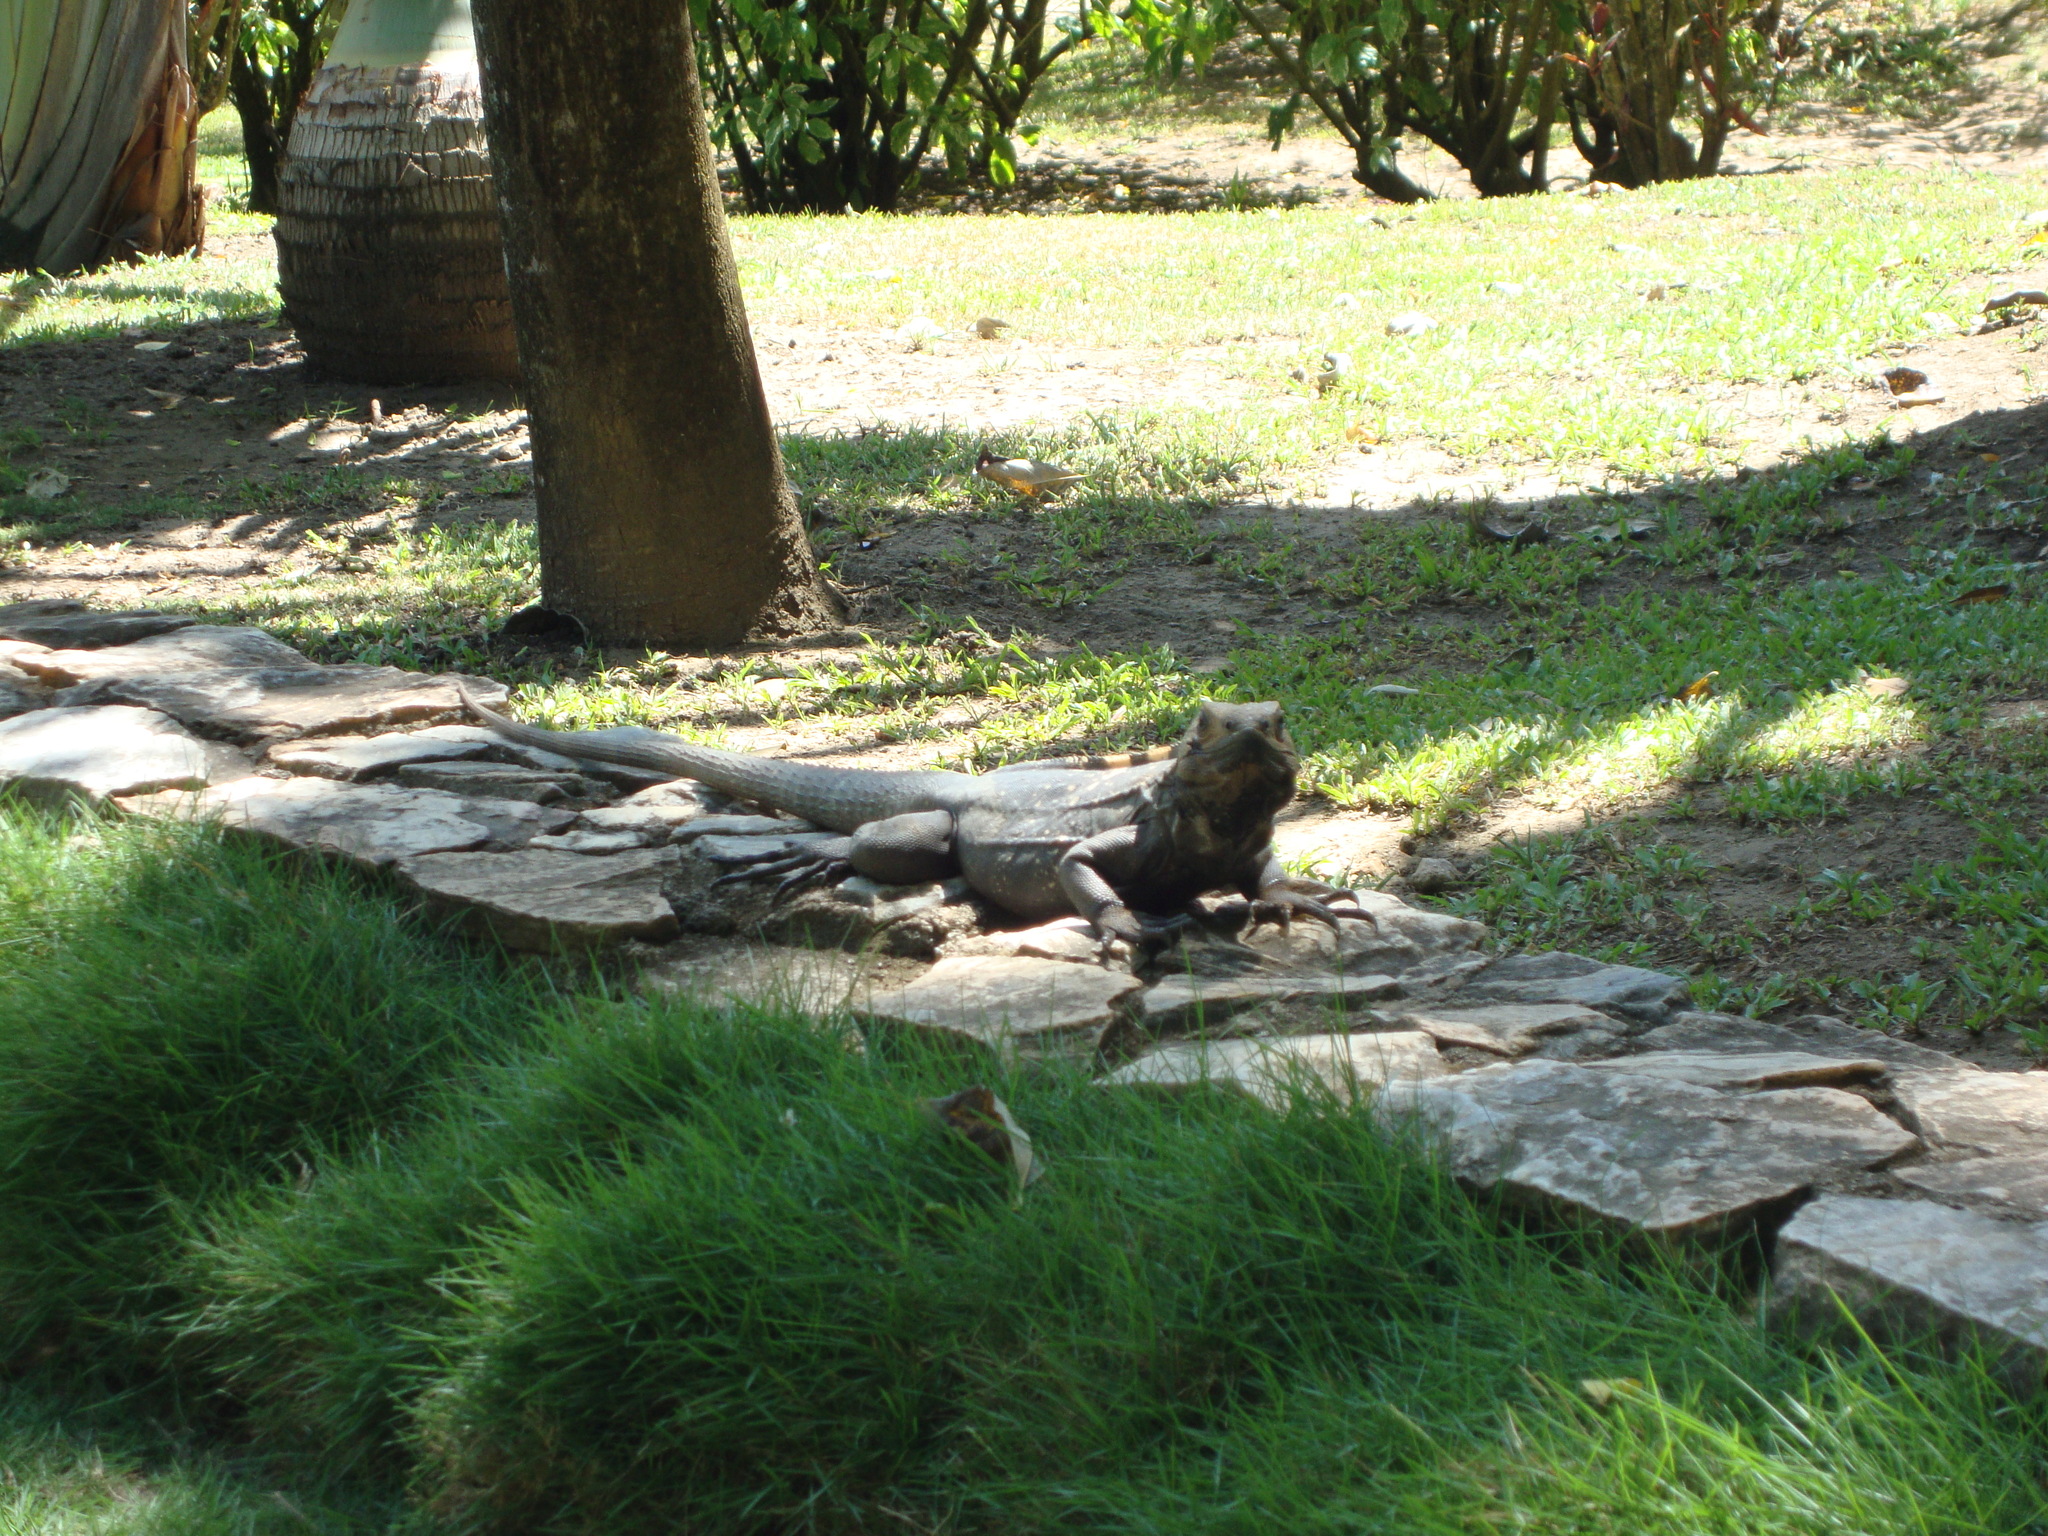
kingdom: Animalia
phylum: Chordata
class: Squamata
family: Iguanidae
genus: Ctenosaura
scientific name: Ctenosaura oedirhina
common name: Roatan spiny-tailed iguana
